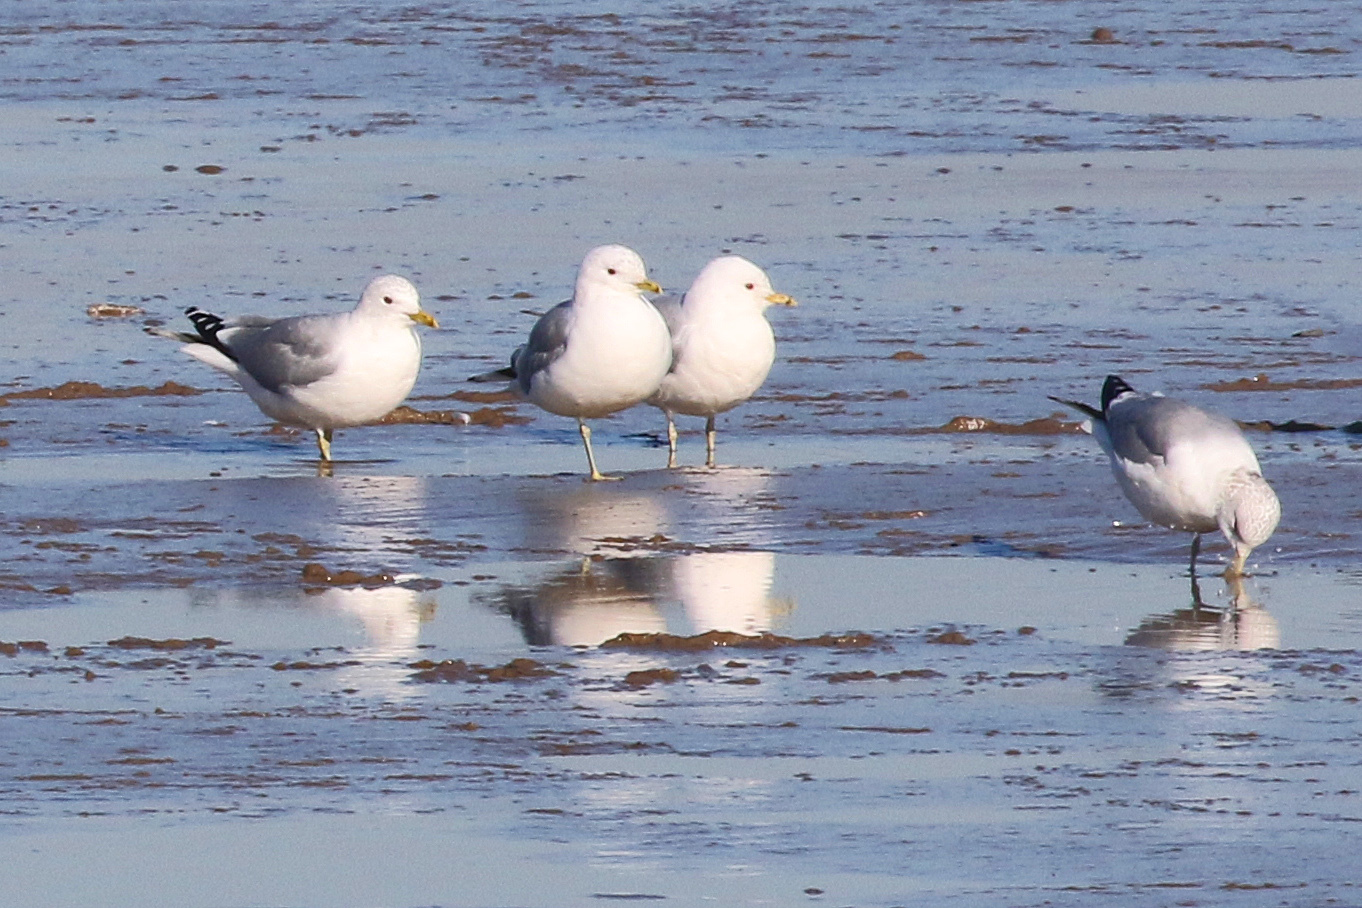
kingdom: Animalia
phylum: Chordata
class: Aves
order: Charadriiformes
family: Laridae
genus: Larus
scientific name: Larus canus
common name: Mew gull
